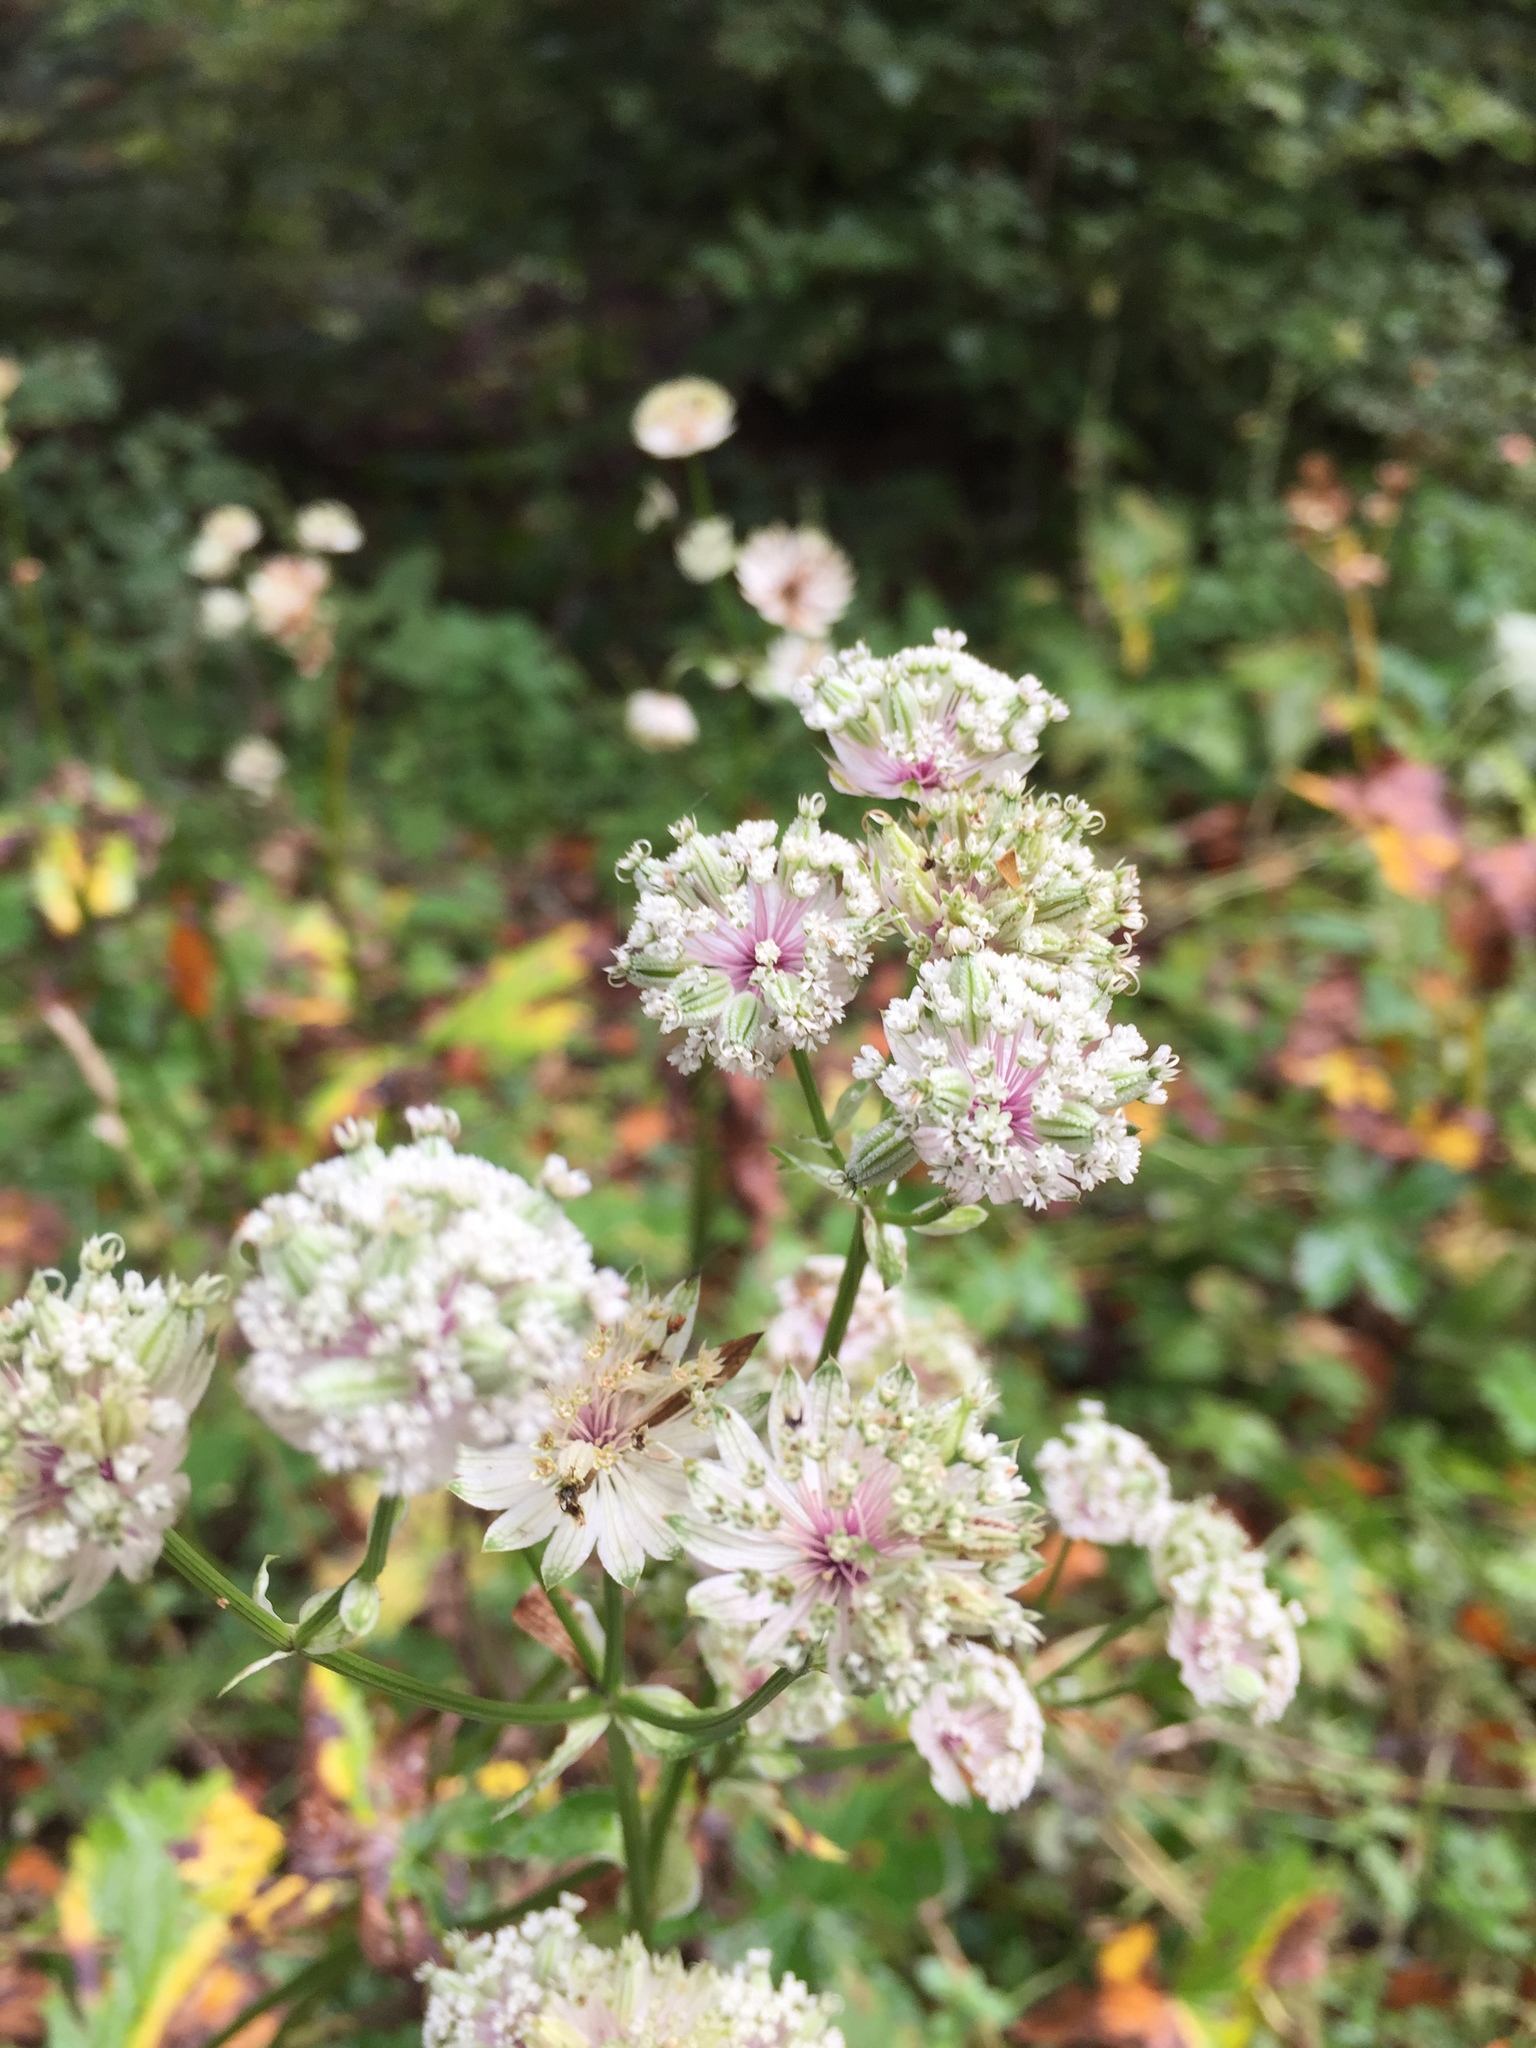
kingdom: Plantae
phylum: Tracheophyta
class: Magnoliopsida
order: Apiales
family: Apiaceae
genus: Astrantia
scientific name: Astrantia major
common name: Greater masterwort
